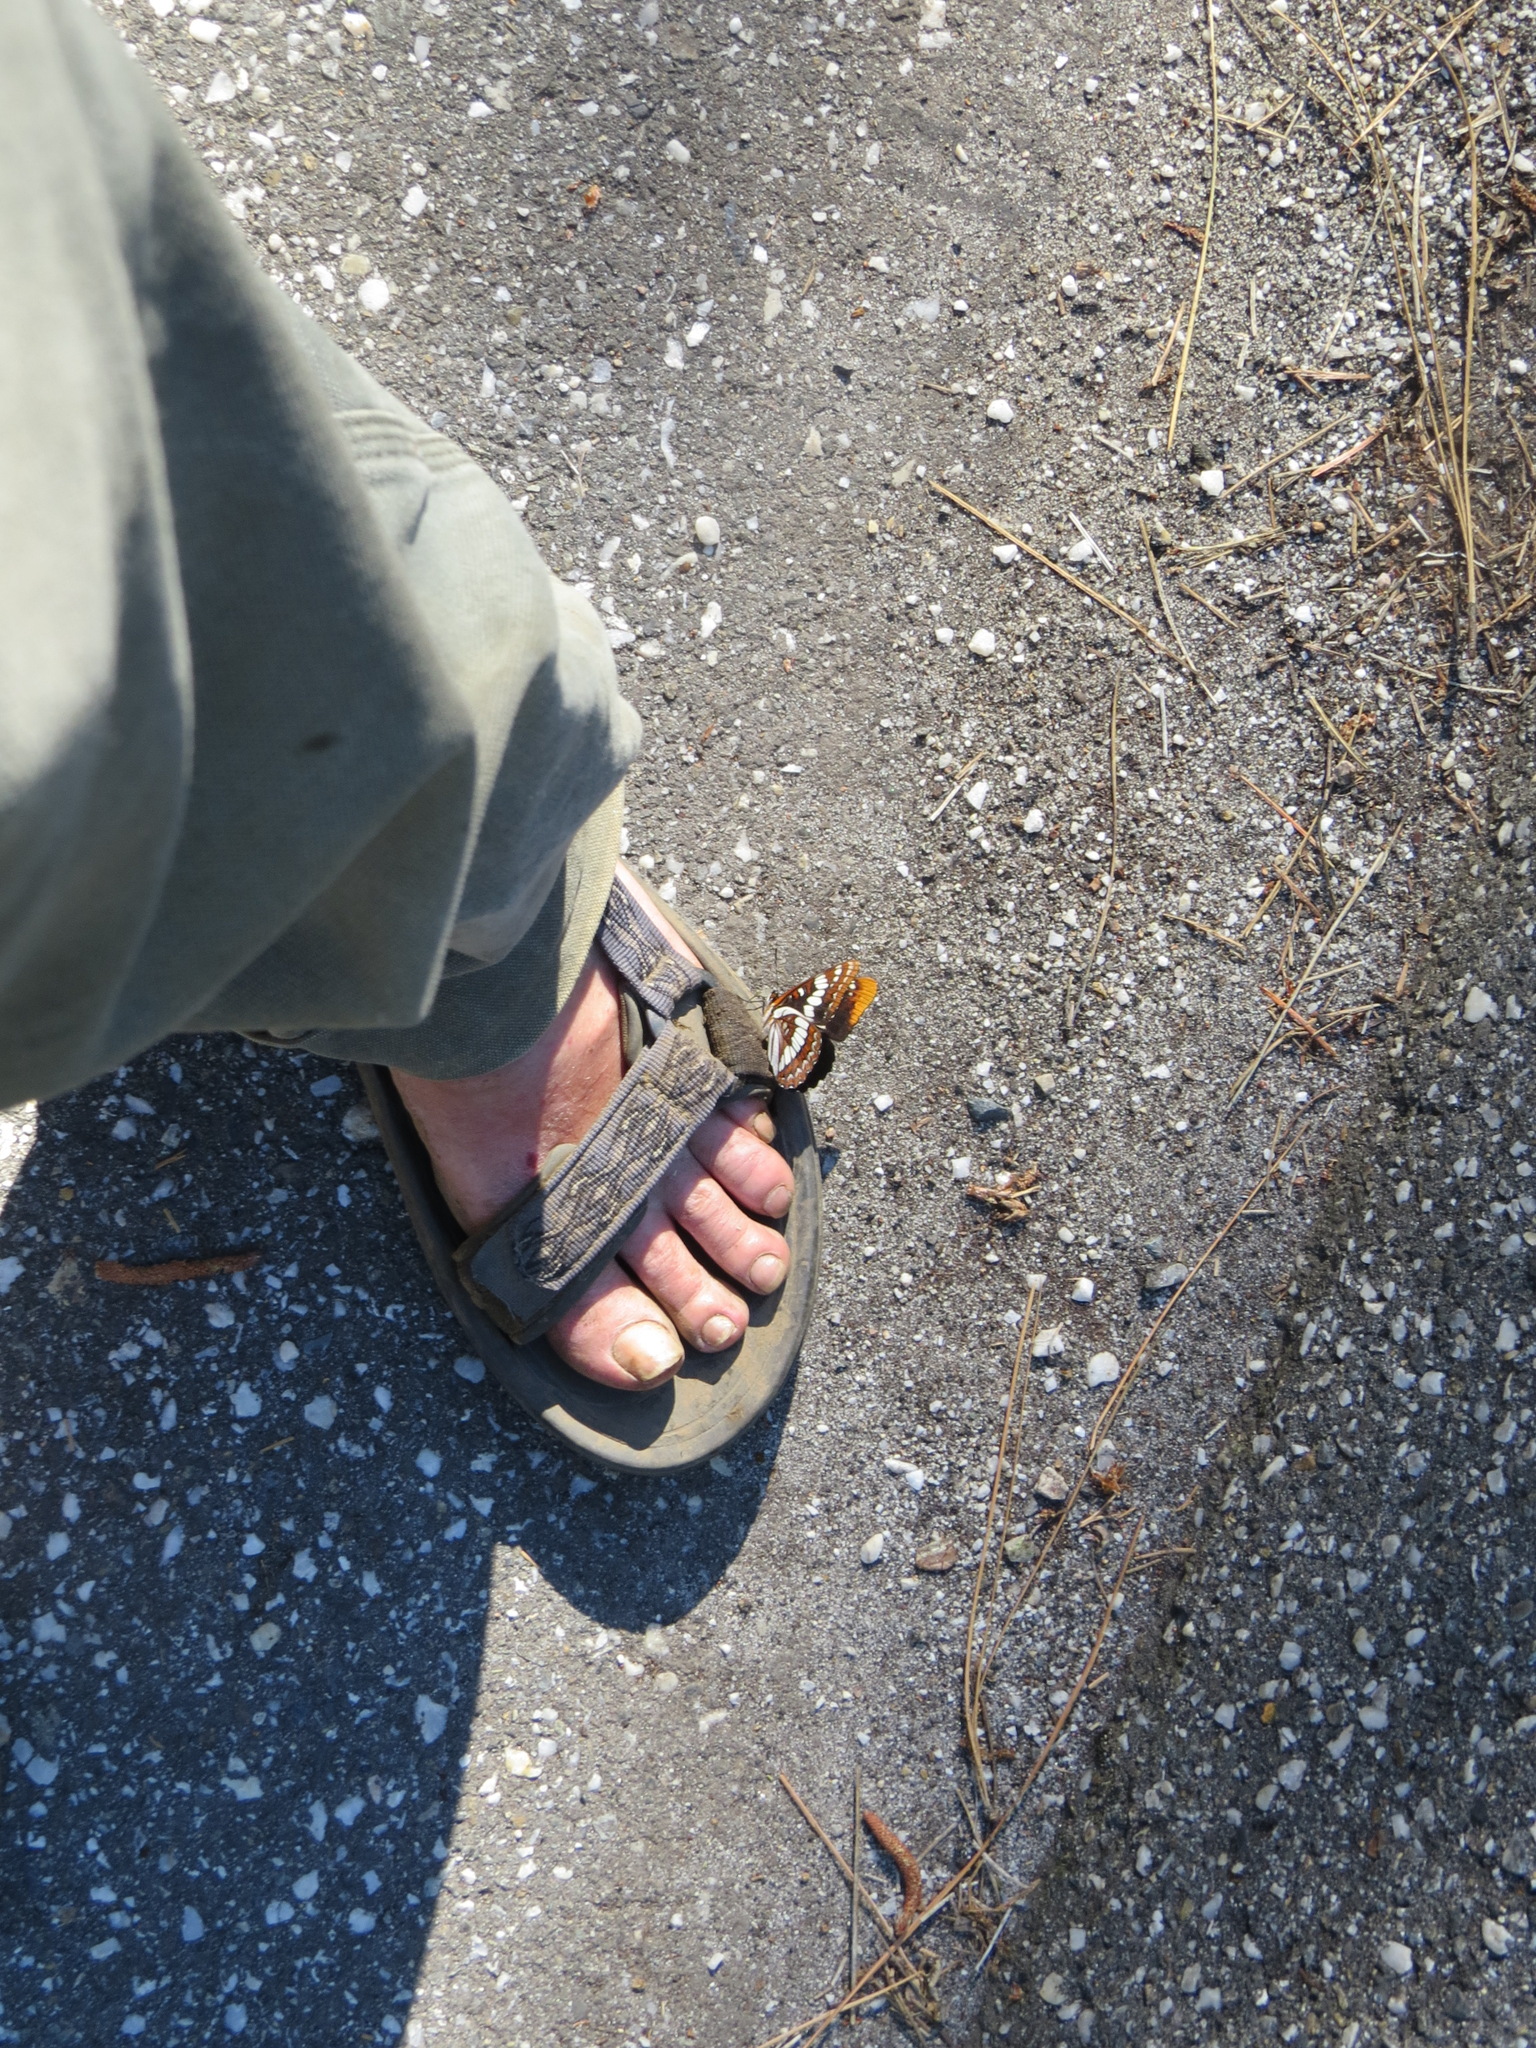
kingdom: Animalia
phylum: Arthropoda
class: Insecta
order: Lepidoptera
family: Nymphalidae
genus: Limenitis
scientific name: Limenitis lorquini
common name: Lorquin's admiral
